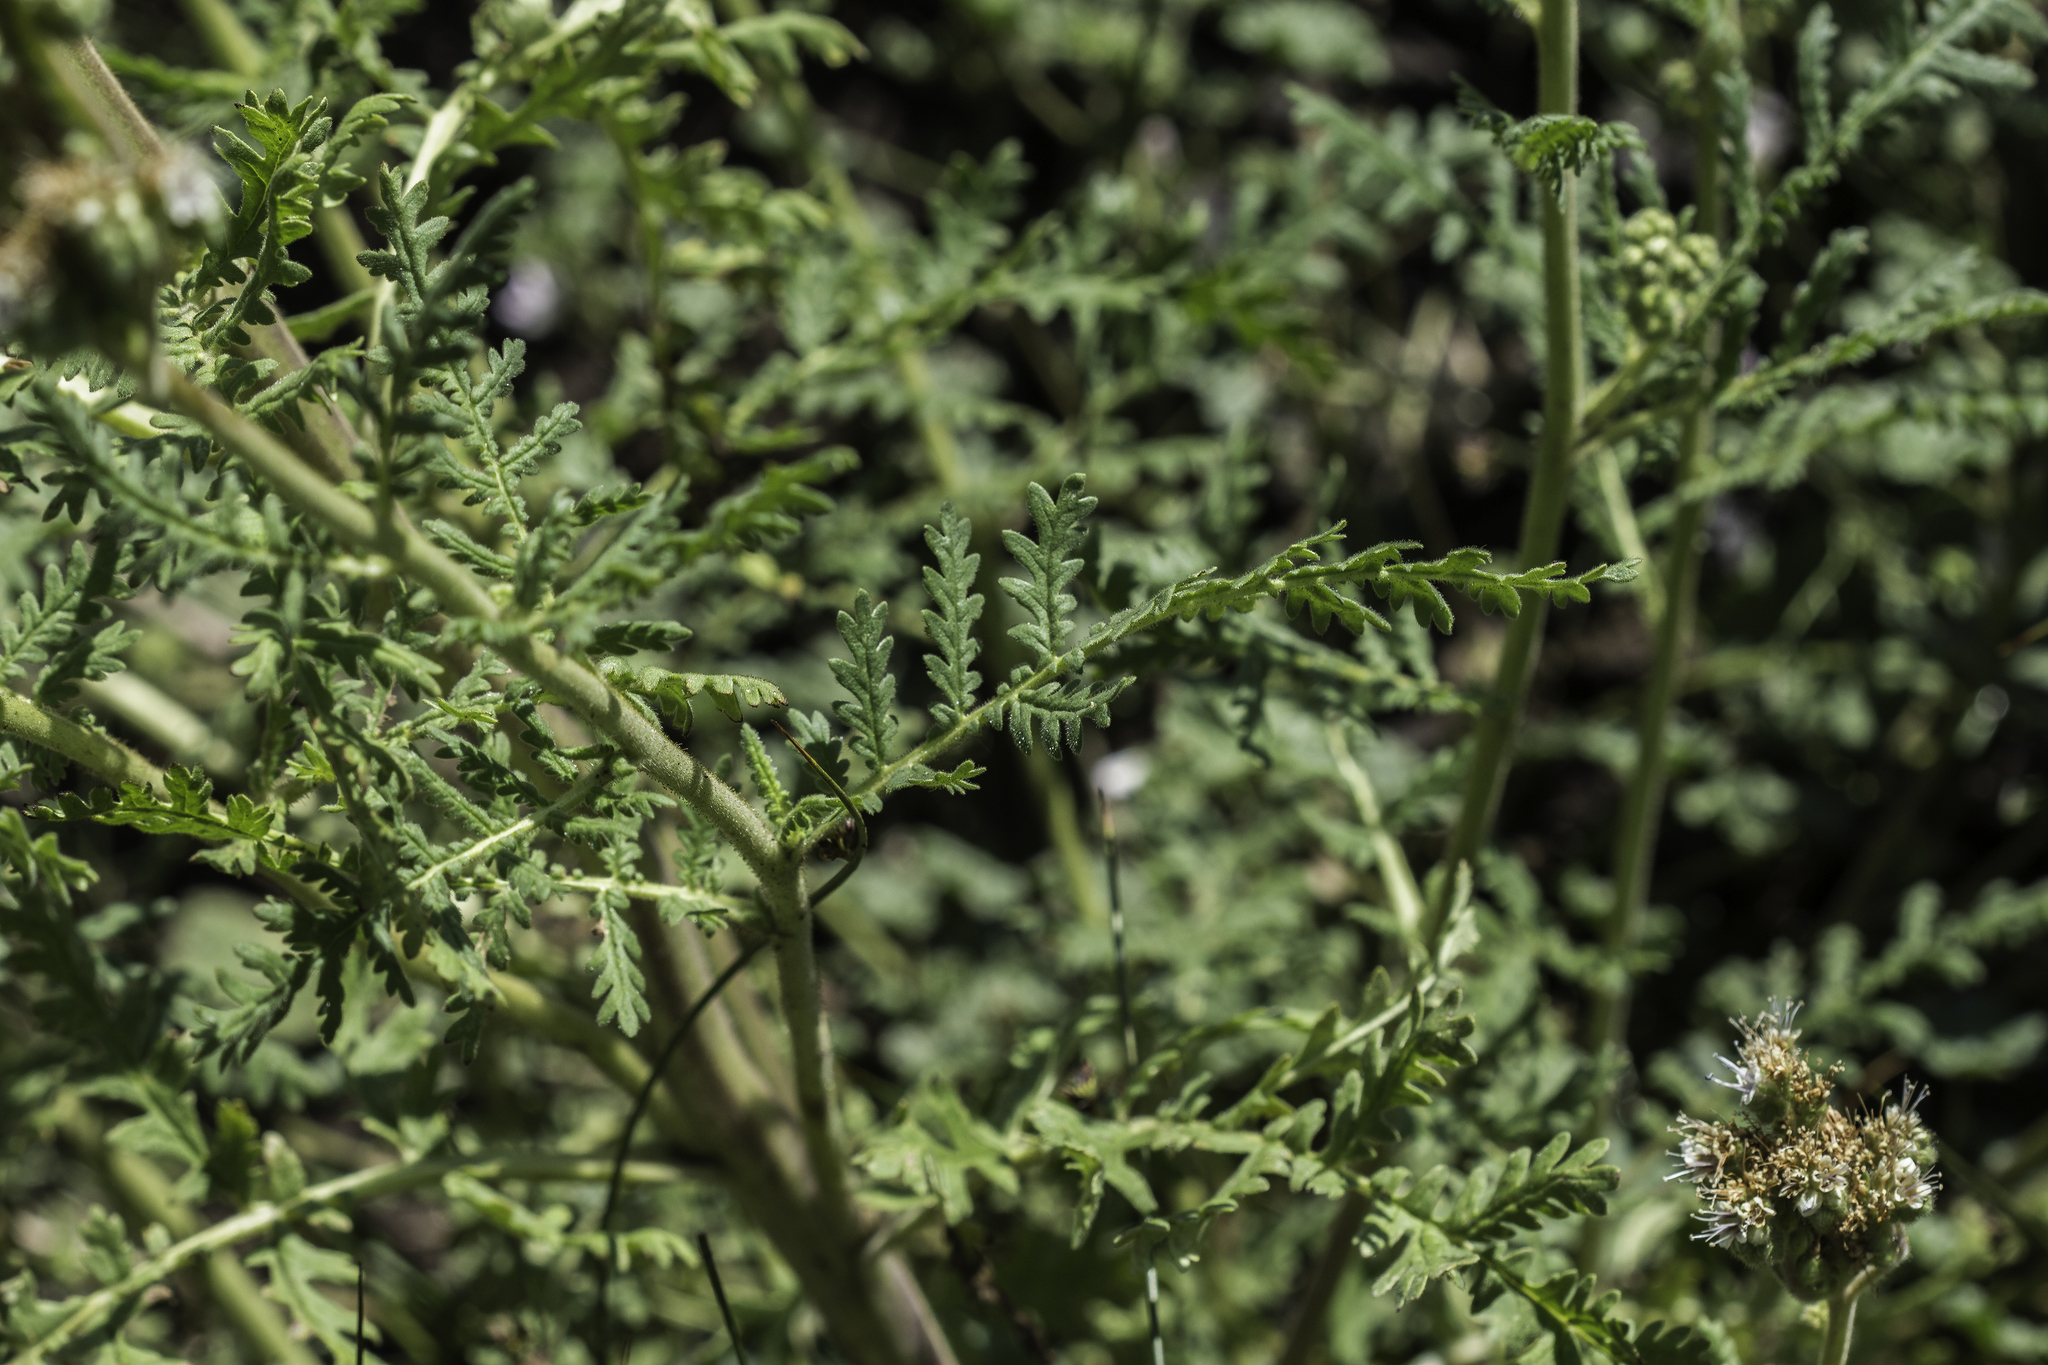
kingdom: Plantae
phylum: Tracheophyta
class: Magnoliopsida
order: Boraginales
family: Hydrophyllaceae
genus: Phacelia
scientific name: Phacelia alba
